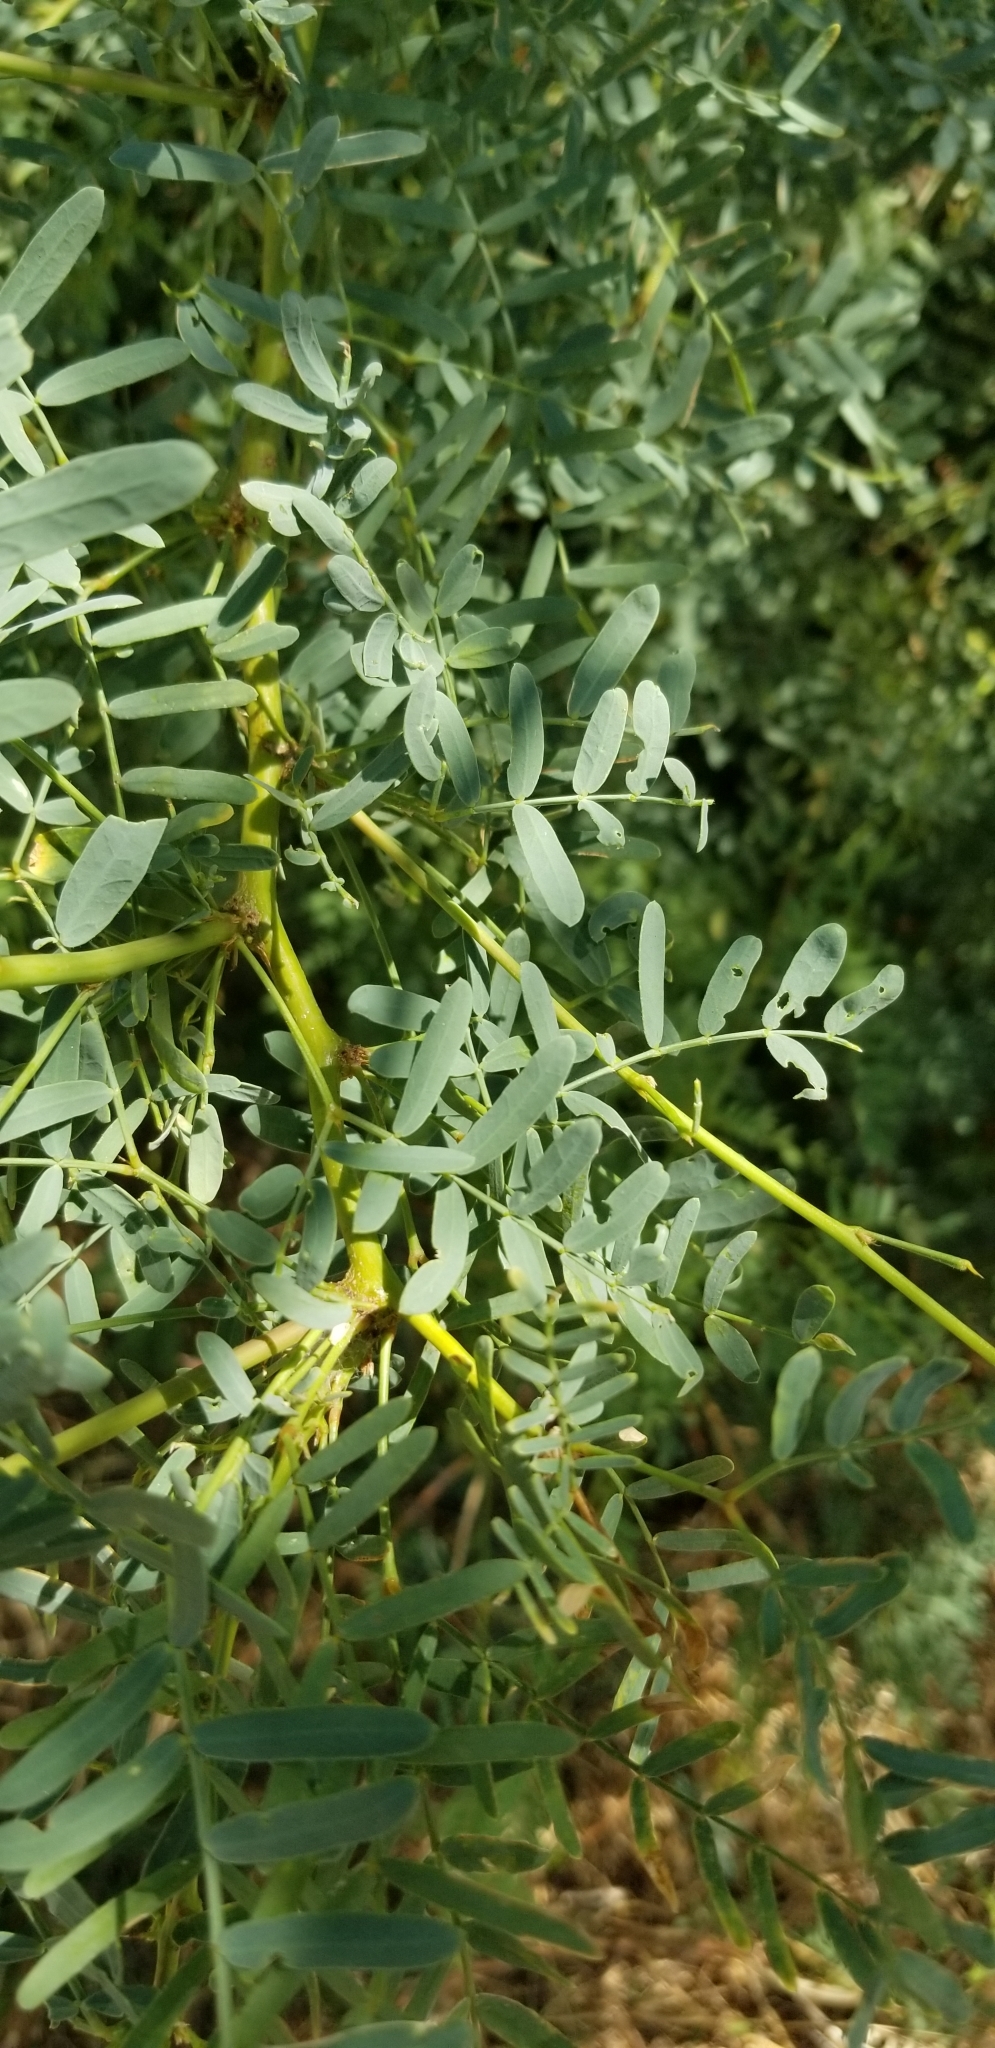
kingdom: Plantae
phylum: Tracheophyta
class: Magnoliopsida
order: Fabales
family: Fabaceae
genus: Prosopis
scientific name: Prosopis pubescens
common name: Screw-bean
